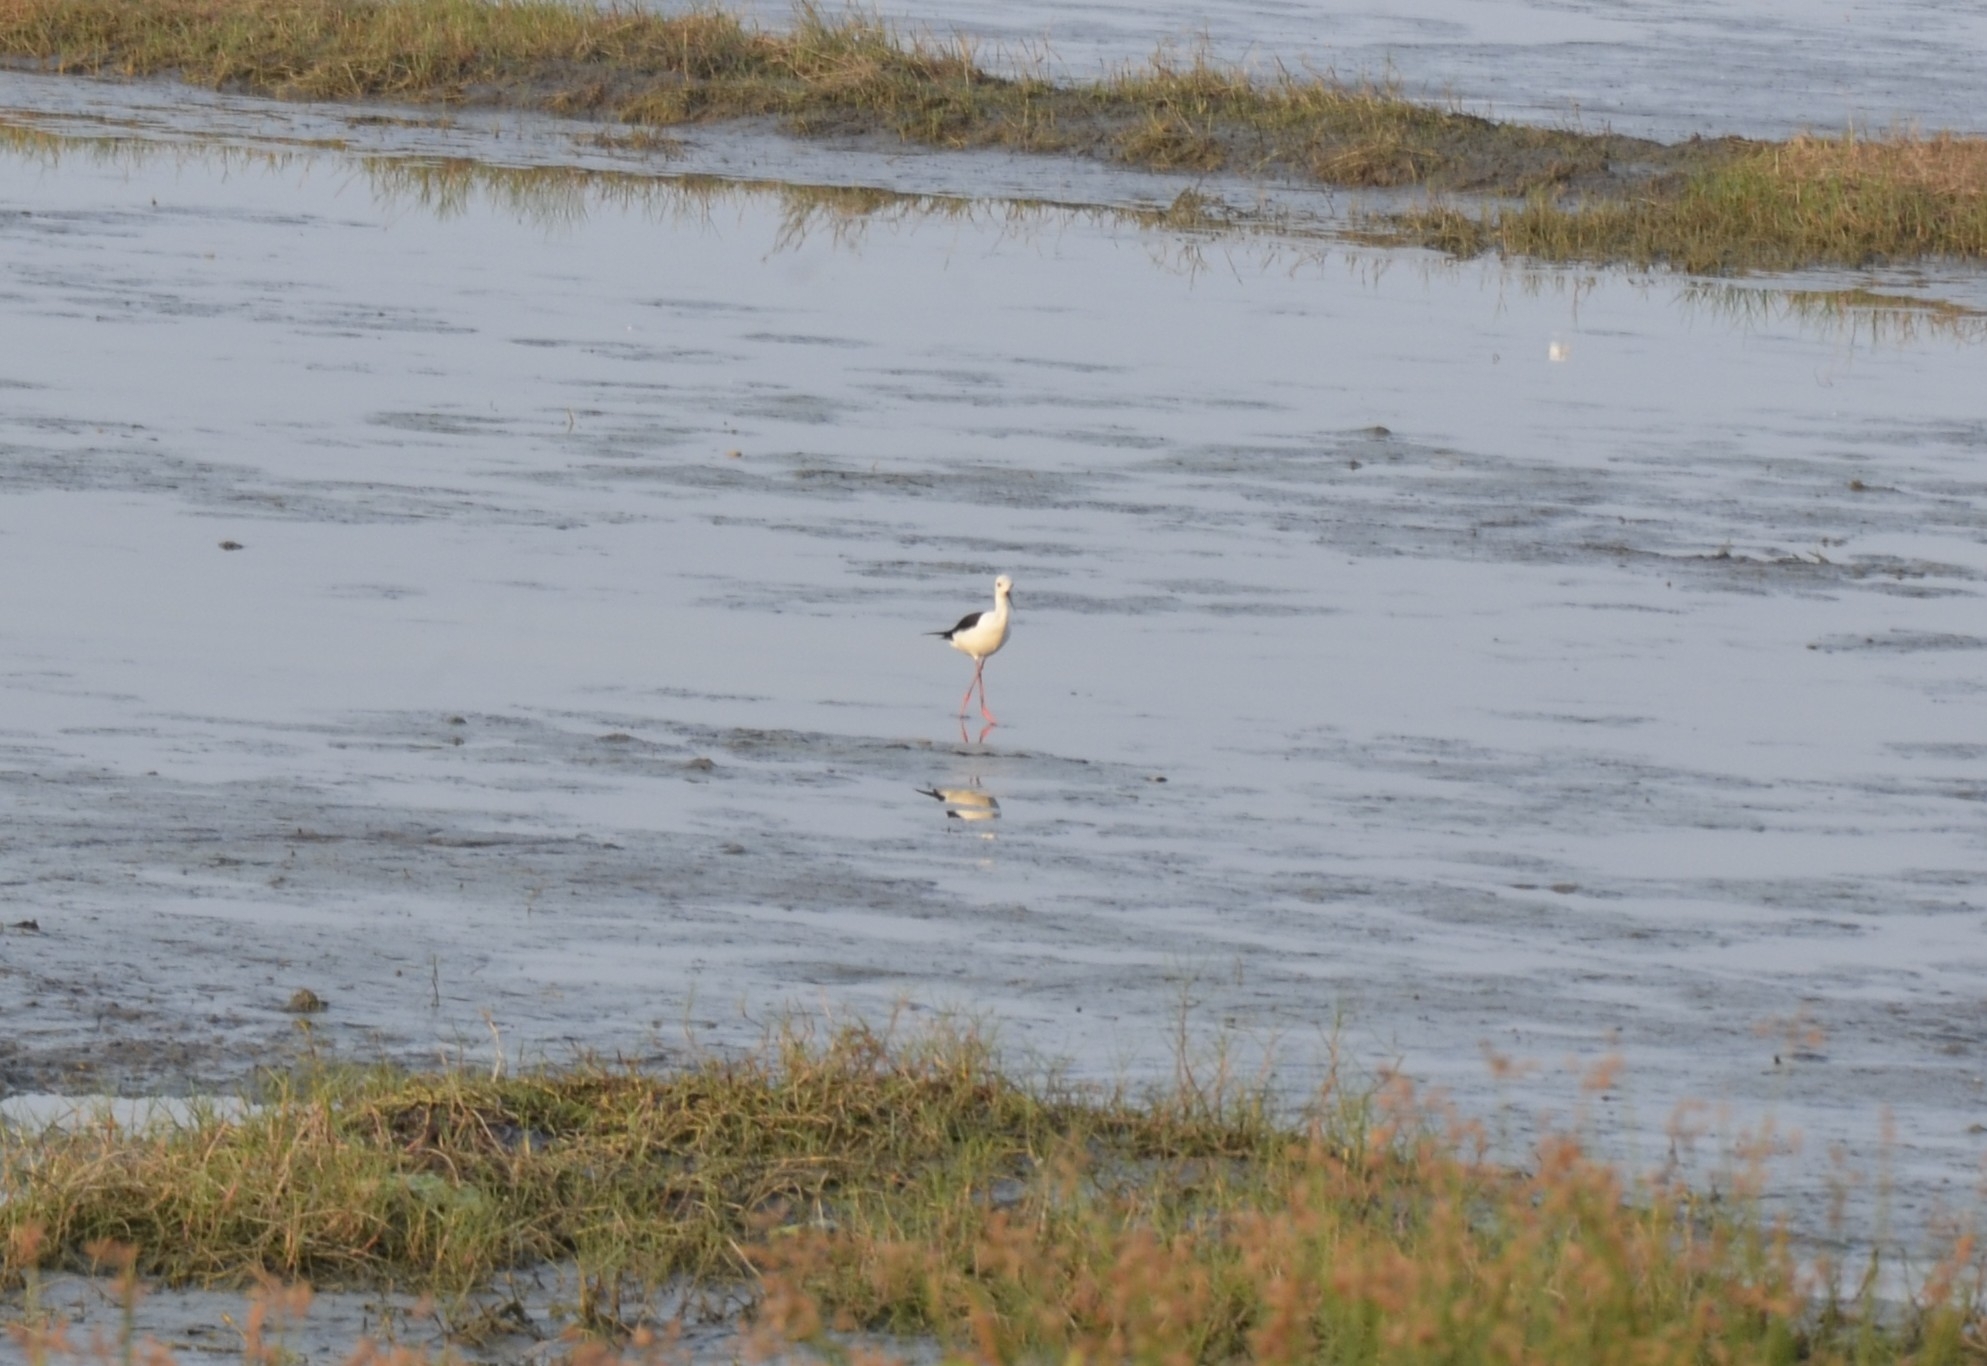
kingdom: Animalia
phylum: Chordata
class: Aves
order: Charadriiformes
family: Recurvirostridae
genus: Himantopus
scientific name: Himantopus himantopus
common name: Black-winged stilt
